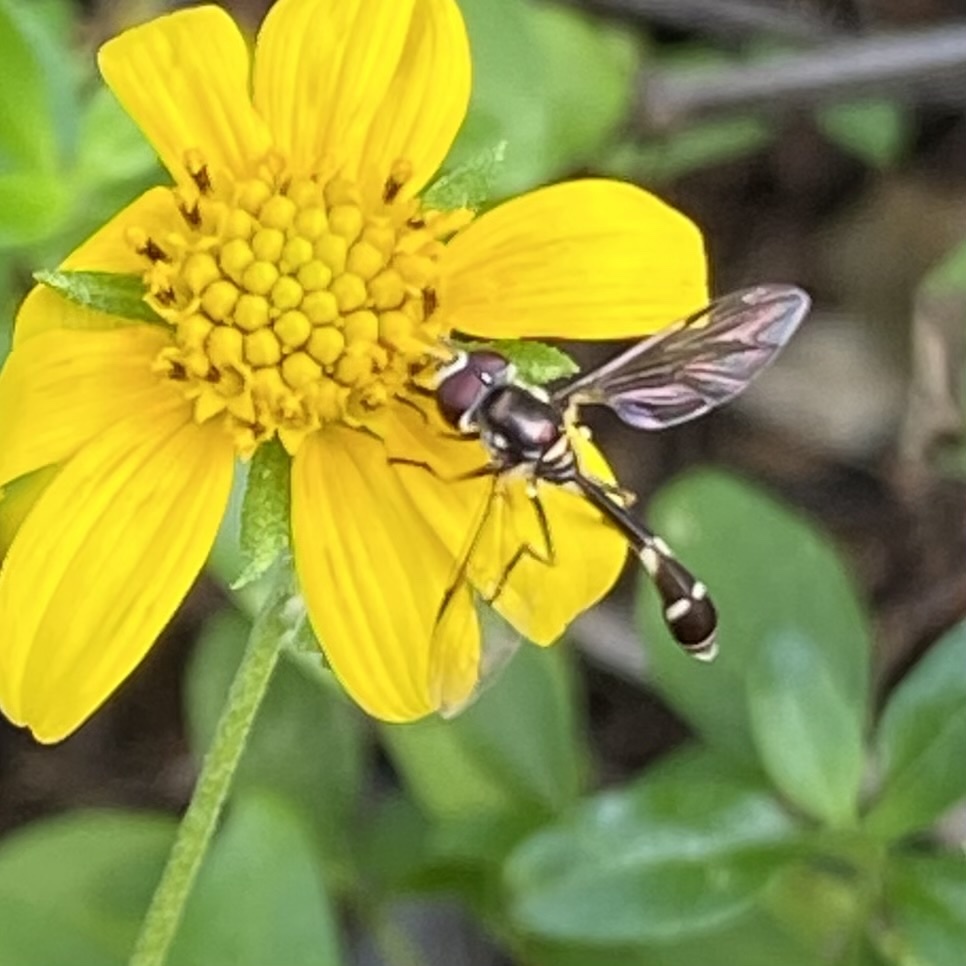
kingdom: Animalia
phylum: Arthropoda
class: Insecta
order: Diptera
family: Syrphidae
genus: Dioprosopa
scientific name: Dioprosopa clavatus
